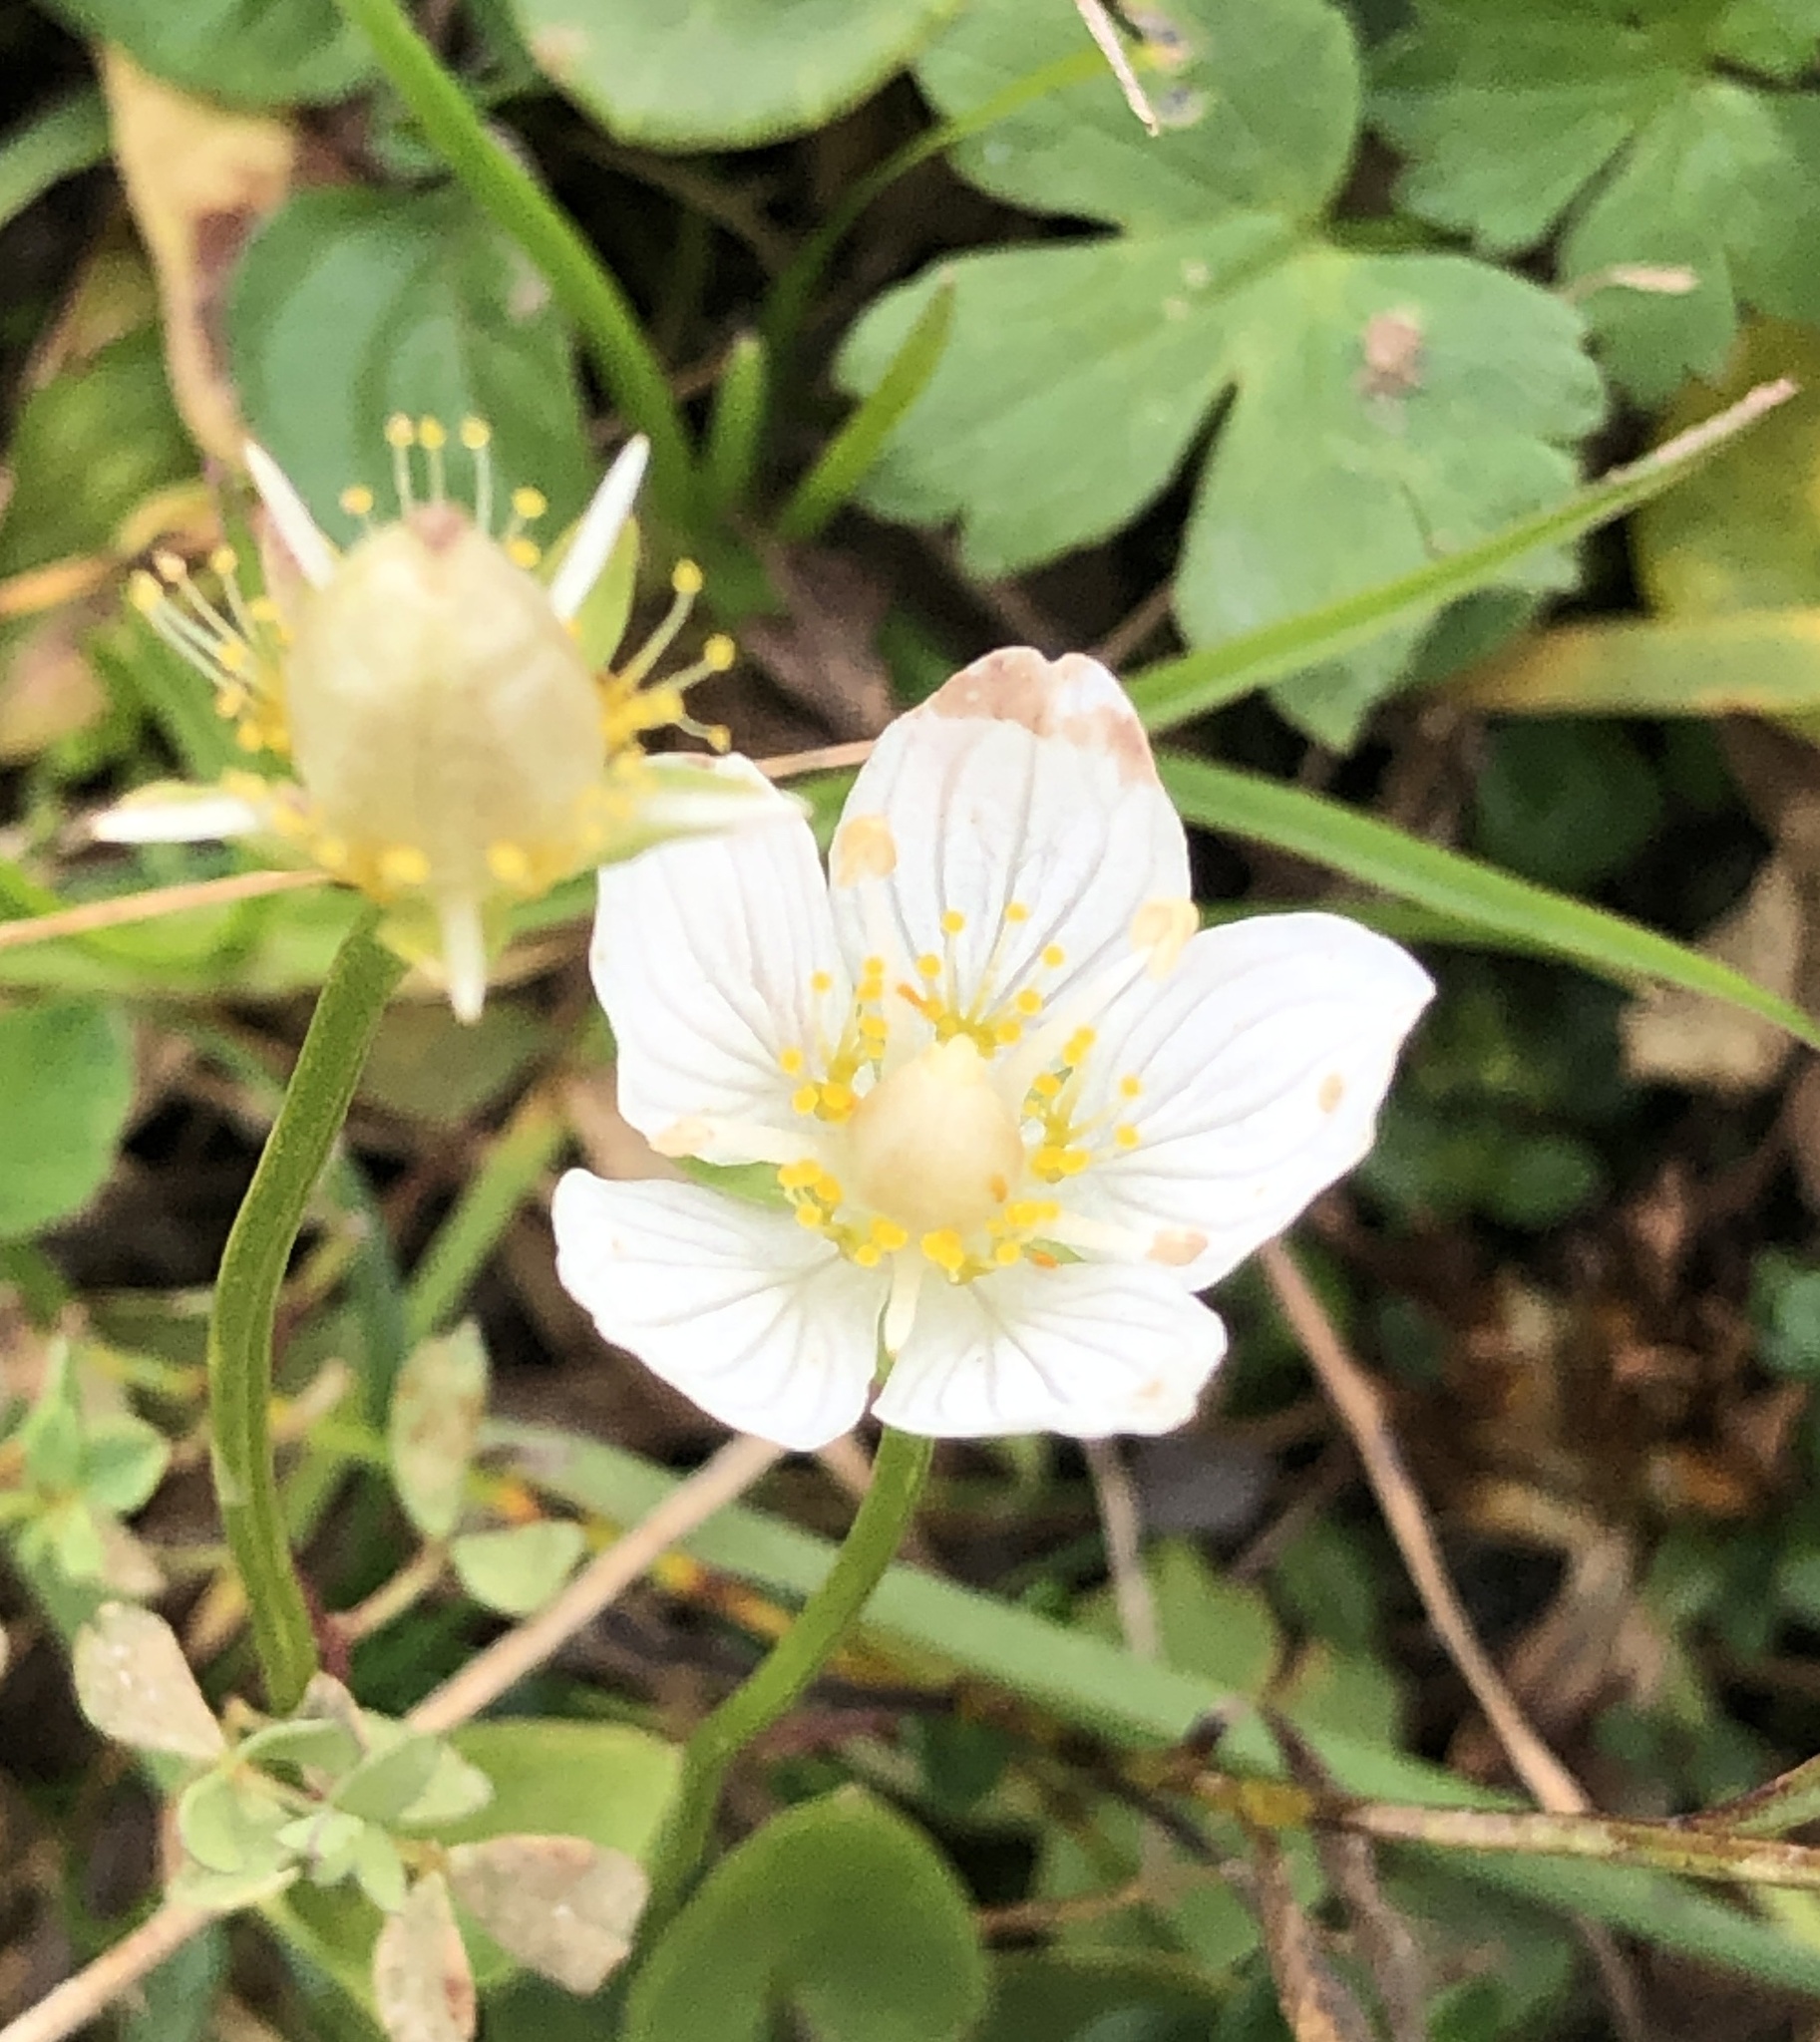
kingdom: Plantae
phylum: Tracheophyta
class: Magnoliopsida
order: Celastrales
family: Parnassiaceae
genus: Parnassia
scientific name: Parnassia palustris
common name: Grass-of-parnassus
